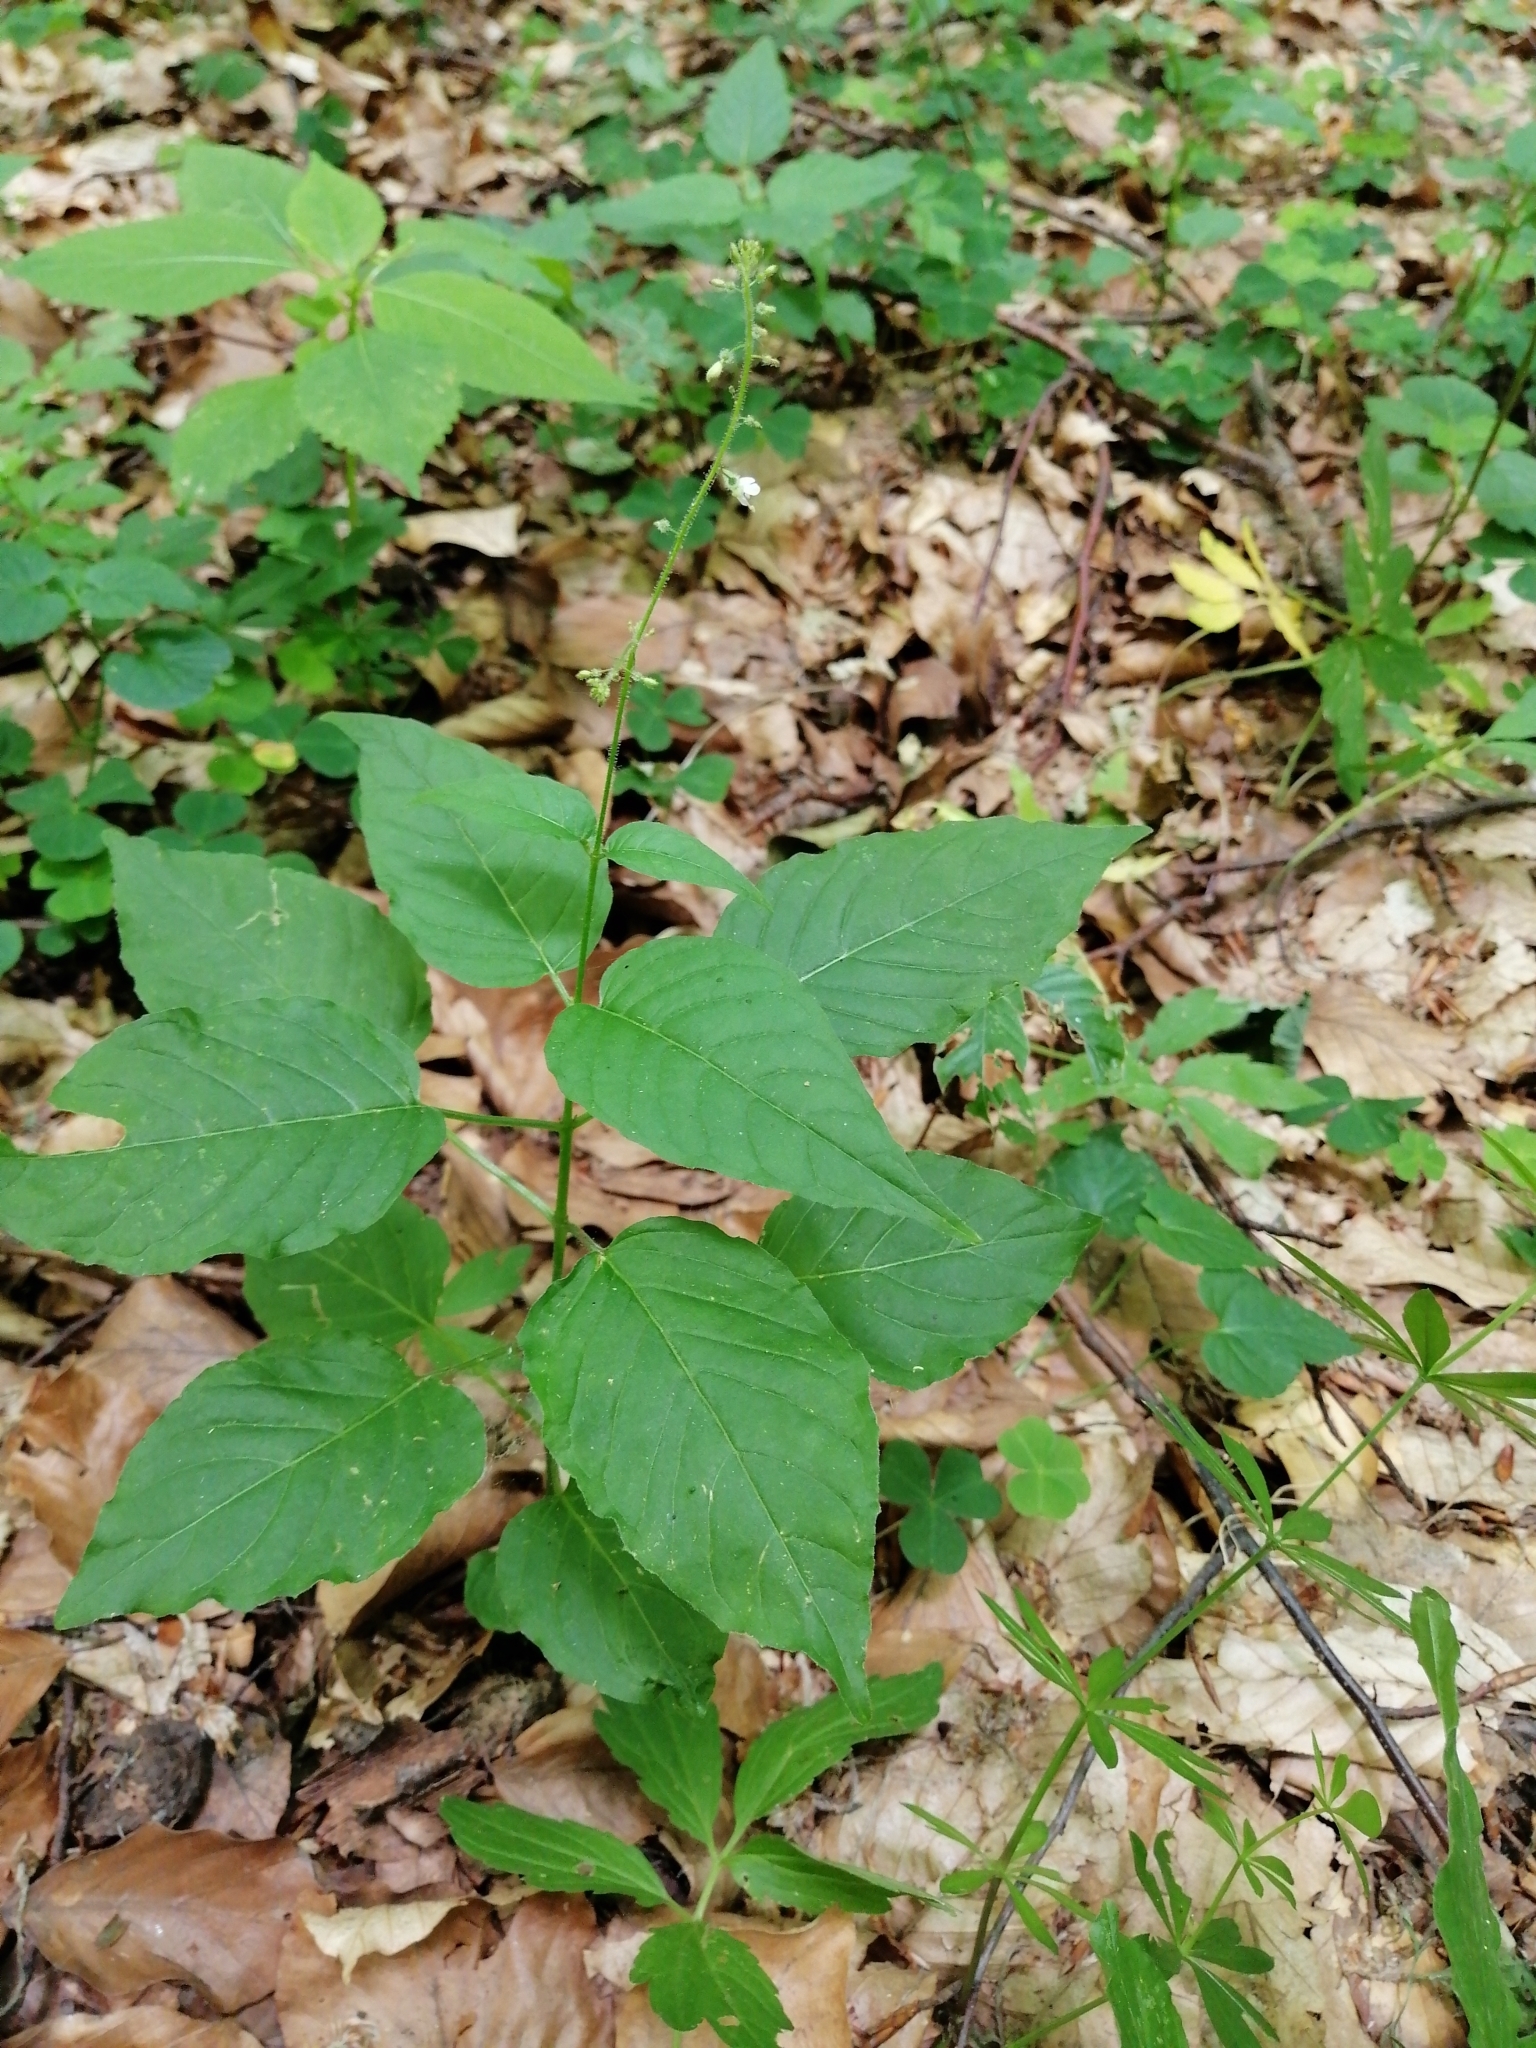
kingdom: Plantae
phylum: Tracheophyta
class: Magnoliopsida
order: Myrtales
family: Onagraceae
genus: Circaea
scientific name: Circaea lutetiana
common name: Enchanter's-nightshade
